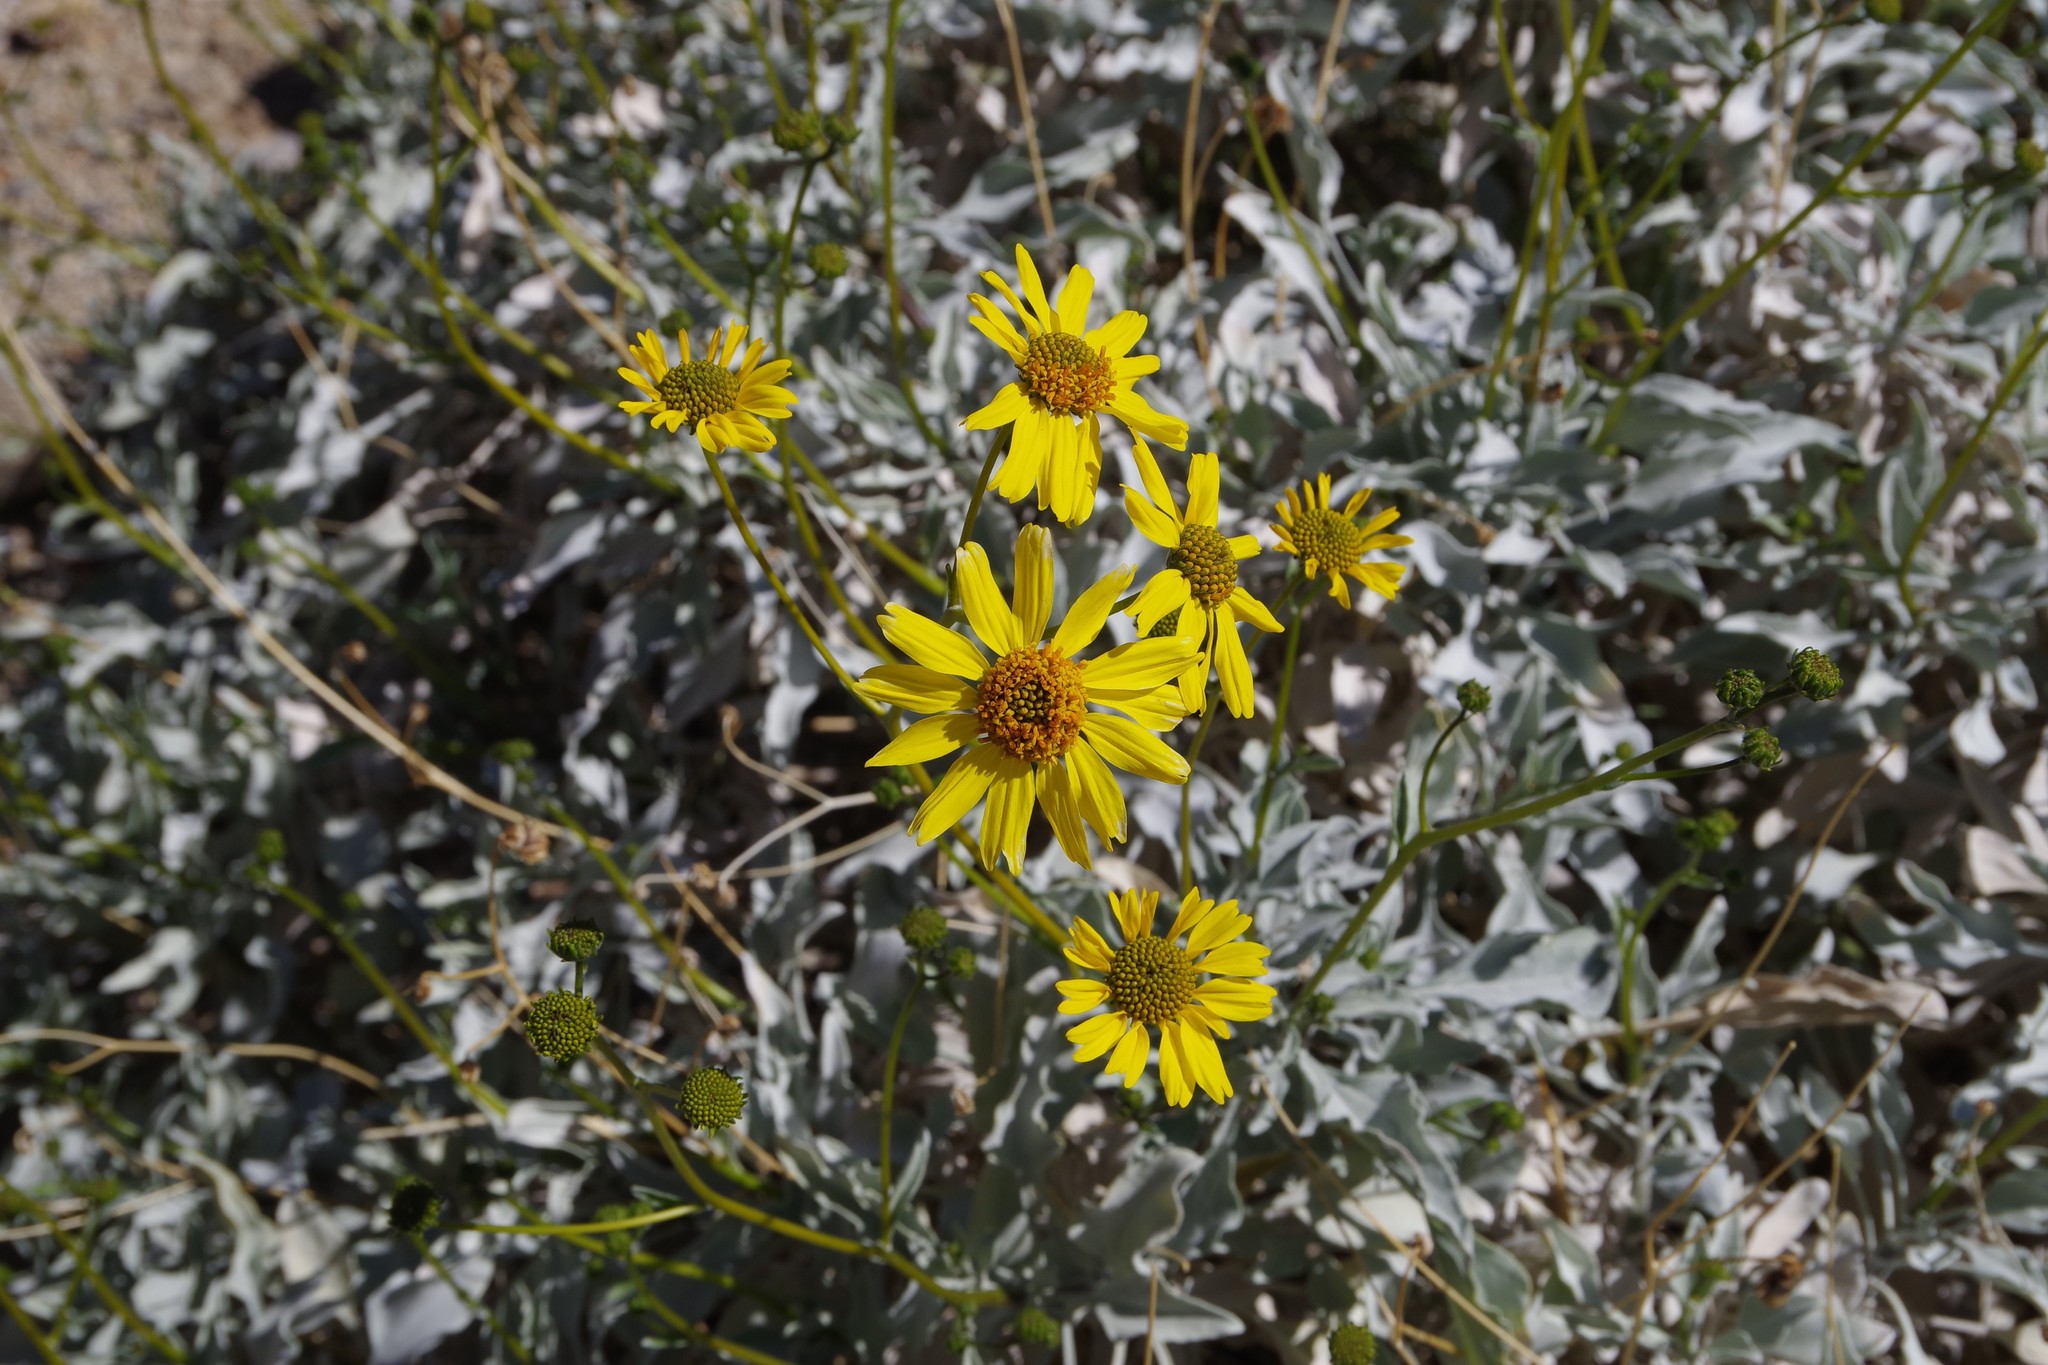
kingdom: Plantae
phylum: Tracheophyta
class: Magnoliopsida
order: Asterales
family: Asteraceae
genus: Encelia
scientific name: Encelia farinosa
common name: Brittlebush
